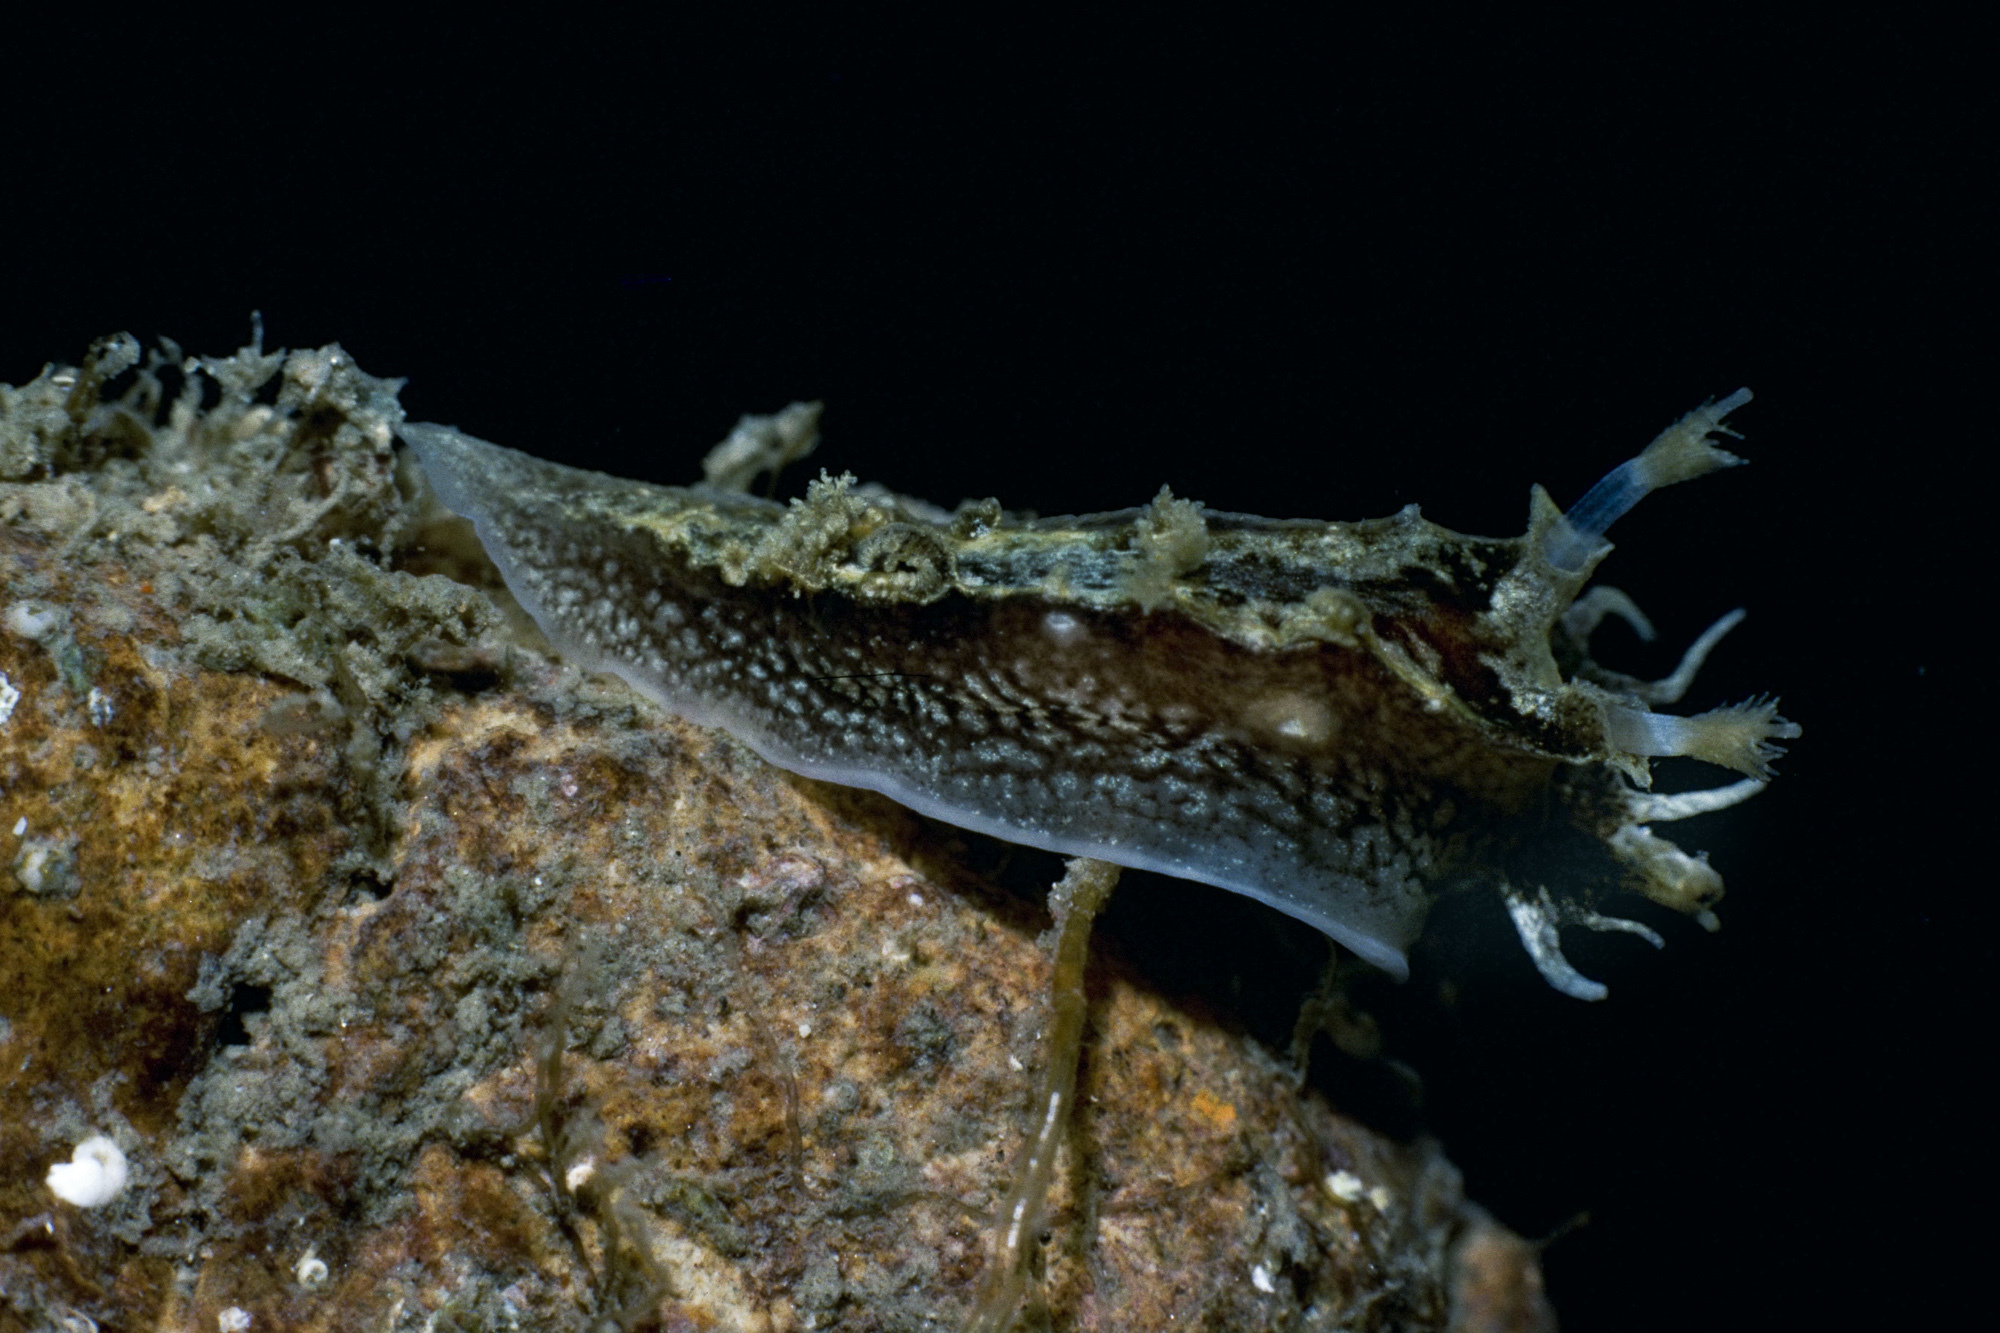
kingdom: Animalia
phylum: Mollusca
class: Gastropoda
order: Nudibranchia
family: Tritoniidae
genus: Duvaucelia
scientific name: Duvaucelia plebeia
